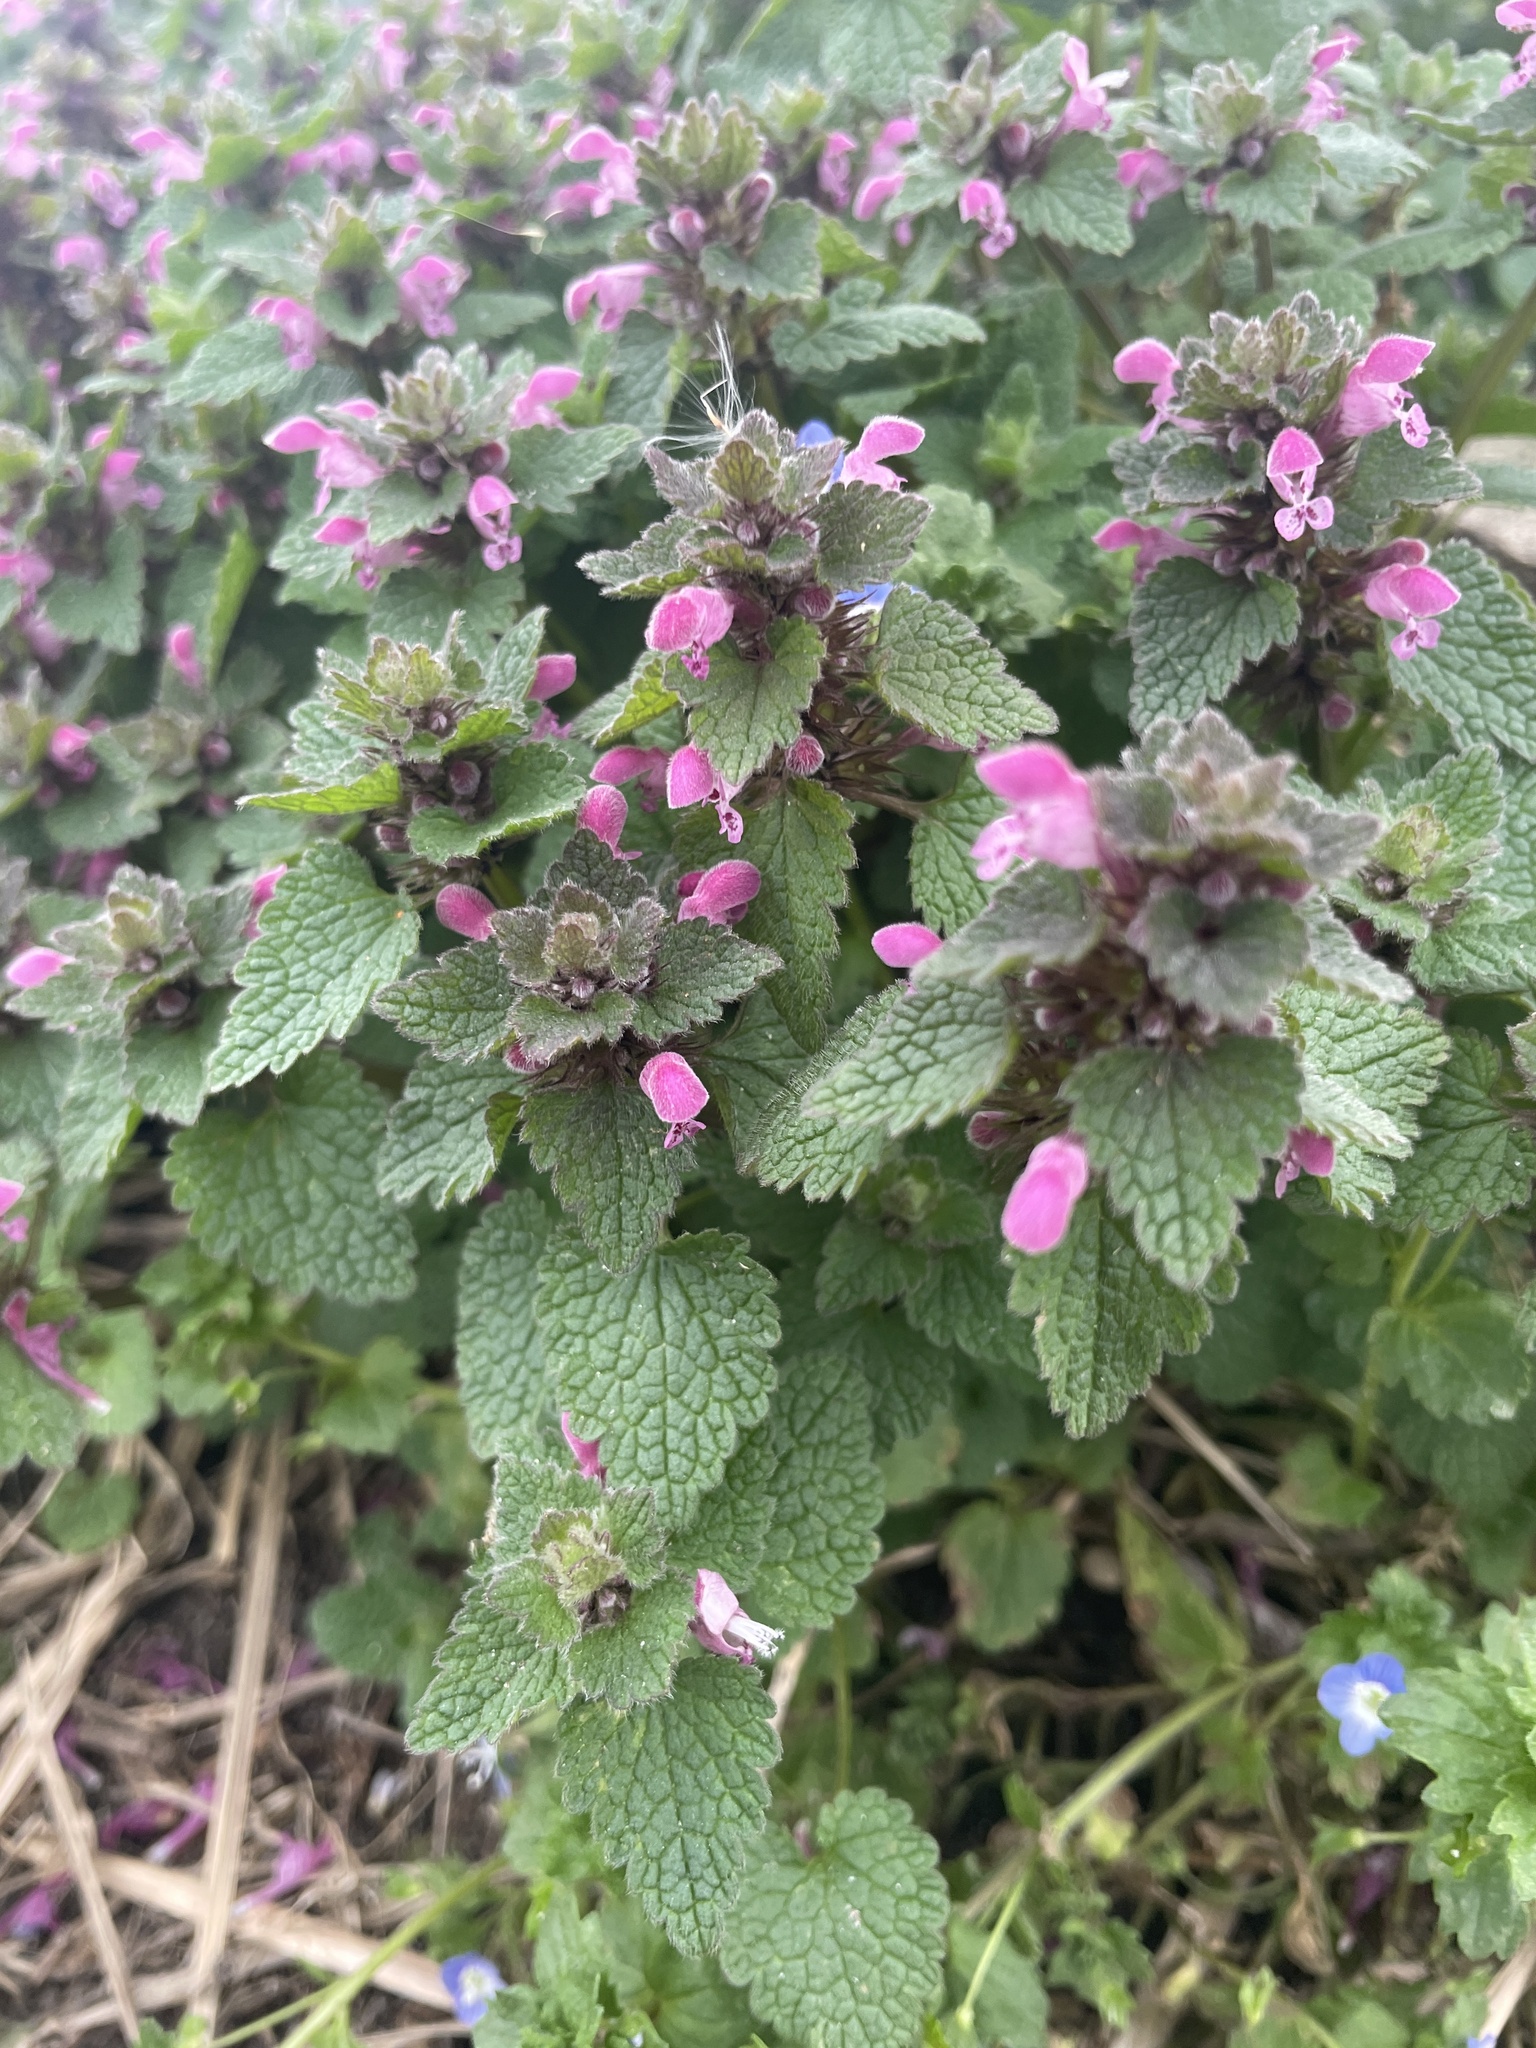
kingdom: Plantae
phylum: Tracheophyta
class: Magnoliopsida
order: Lamiales
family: Lamiaceae
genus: Lamium
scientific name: Lamium purpureum
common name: Red dead-nettle
